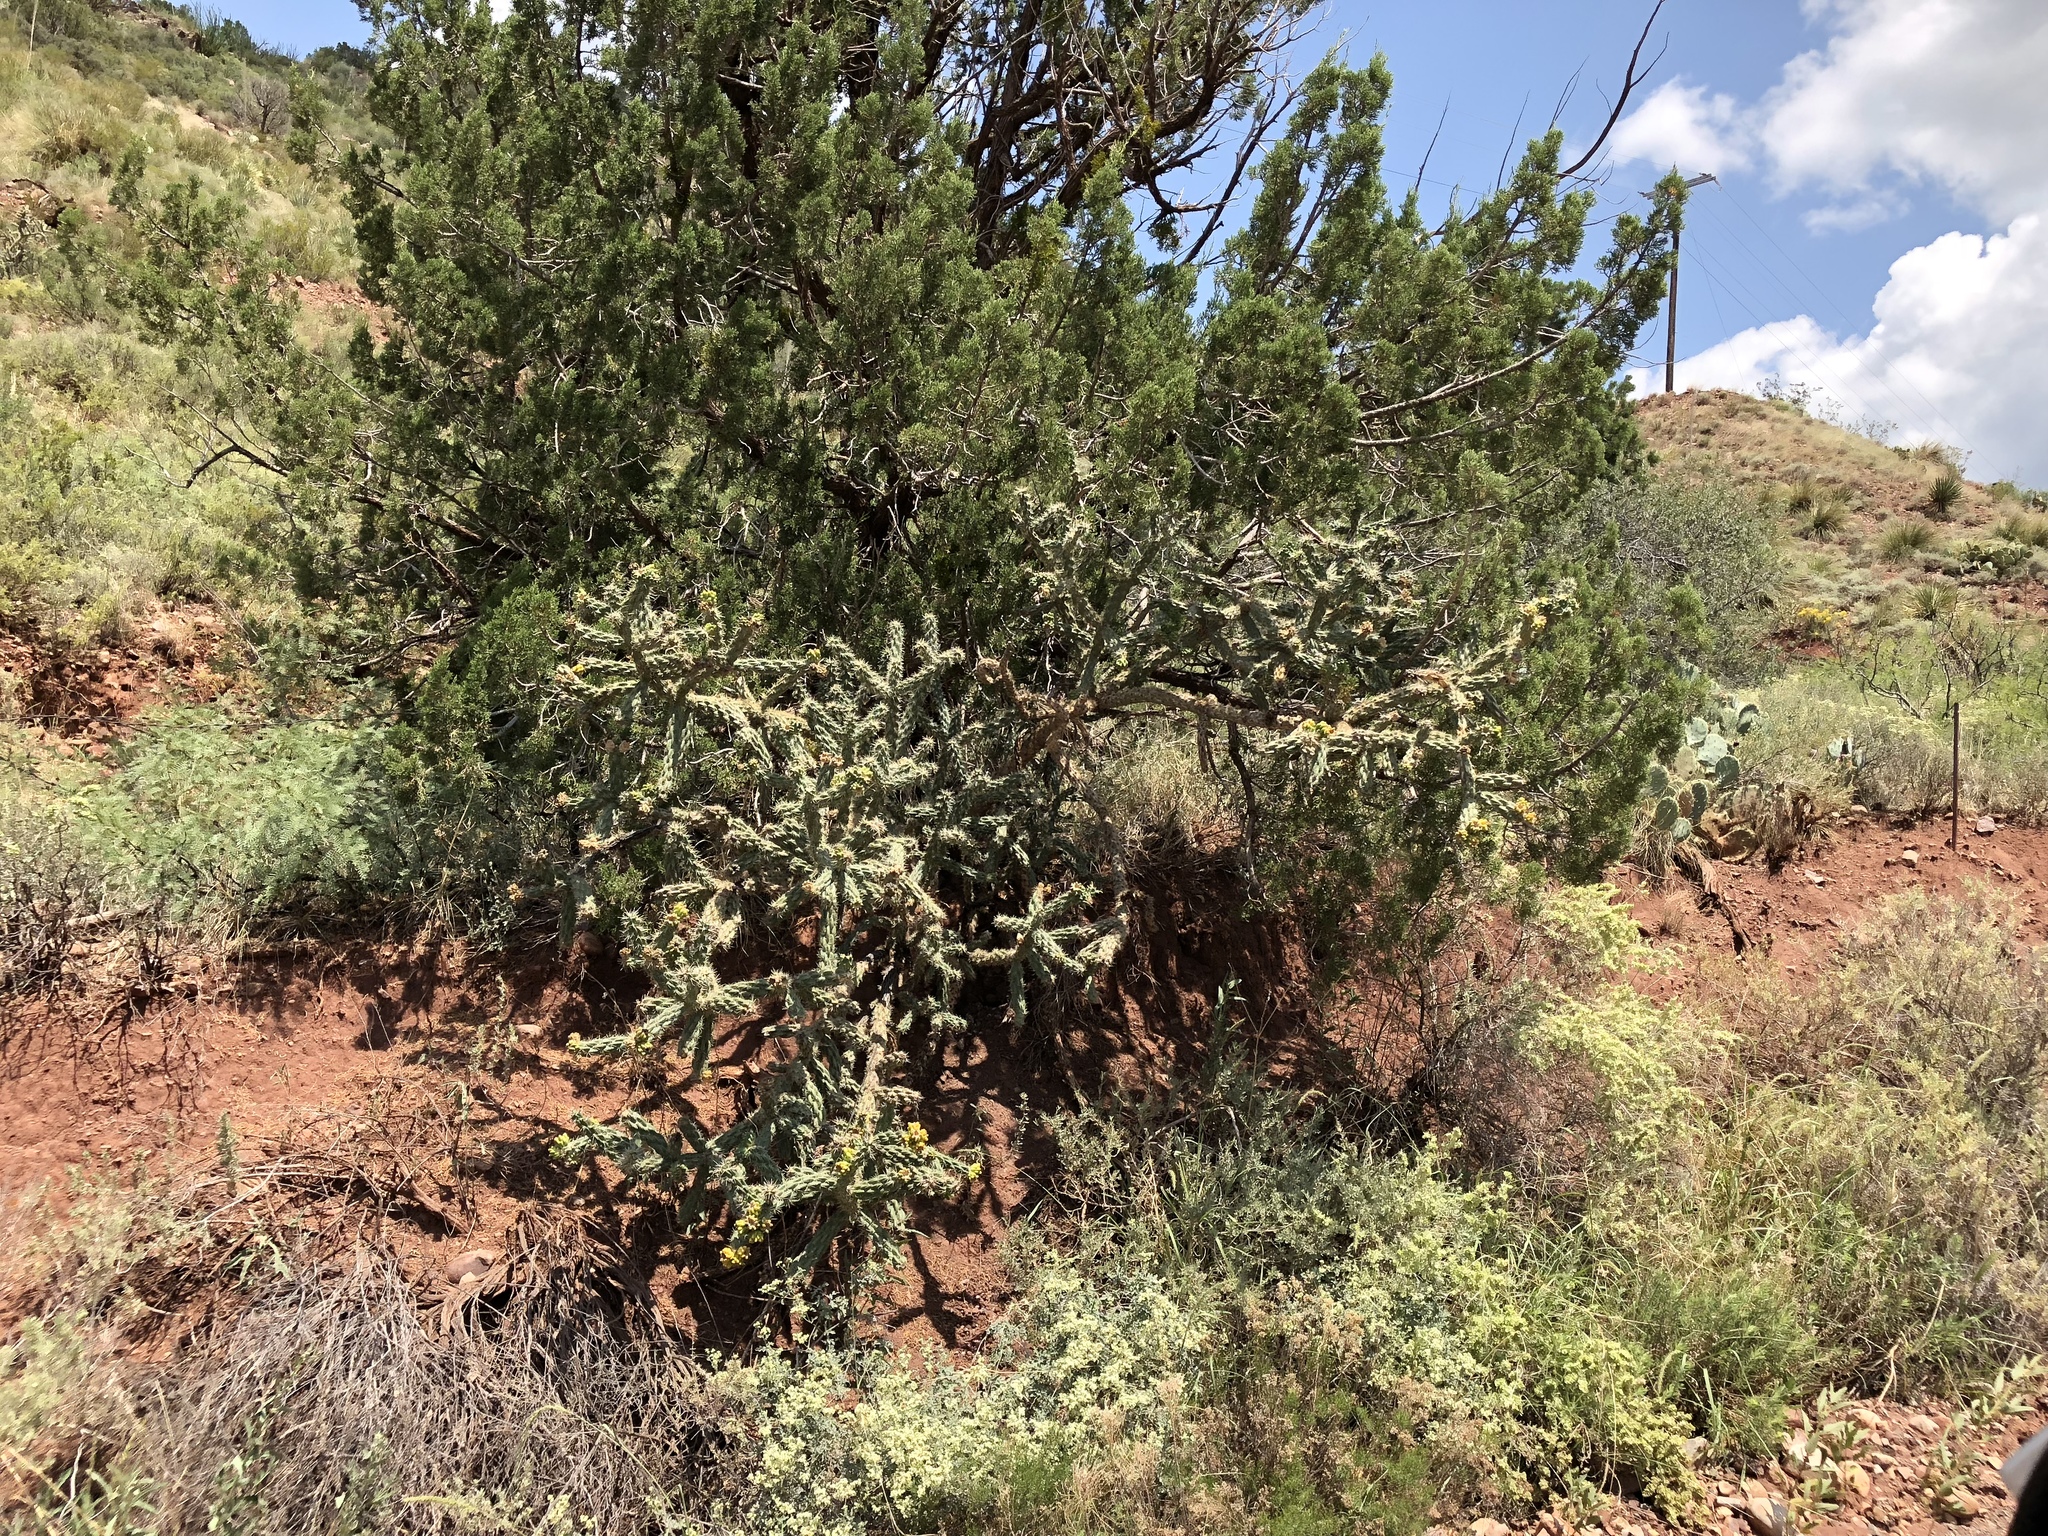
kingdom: Plantae
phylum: Tracheophyta
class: Magnoliopsida
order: Caryophyllales
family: Cactaceae
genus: Cylindropuntia
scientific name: Cylindropuntia imbricata
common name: Candelabrum cactus
